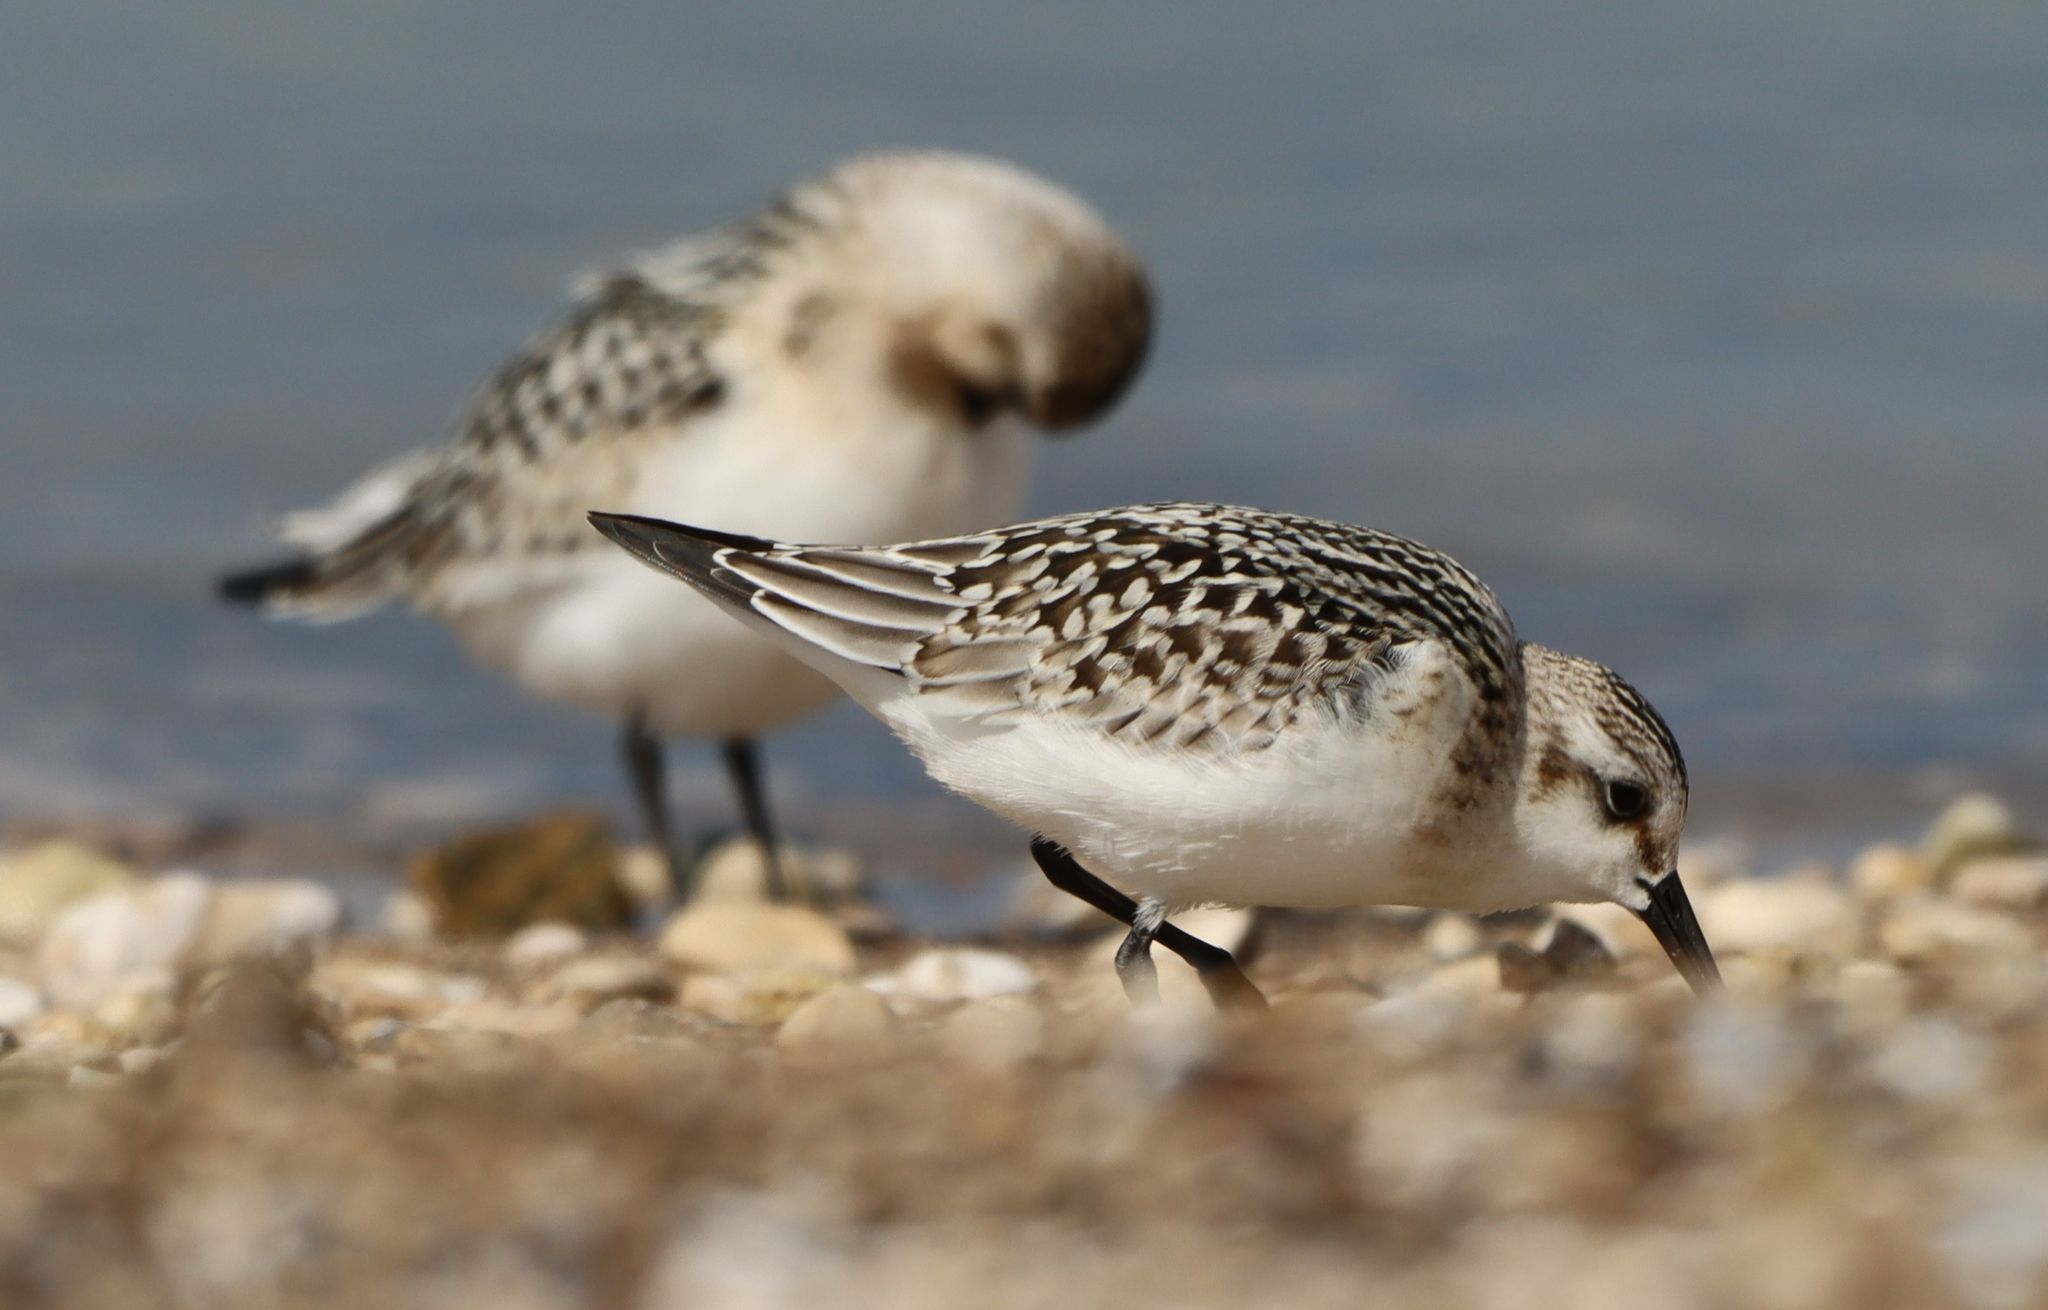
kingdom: Animalia
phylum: Chordata
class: Aves
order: Charadriiformes
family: Scolopacidae
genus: Calidris
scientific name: Calidris alba
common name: Sanderling
